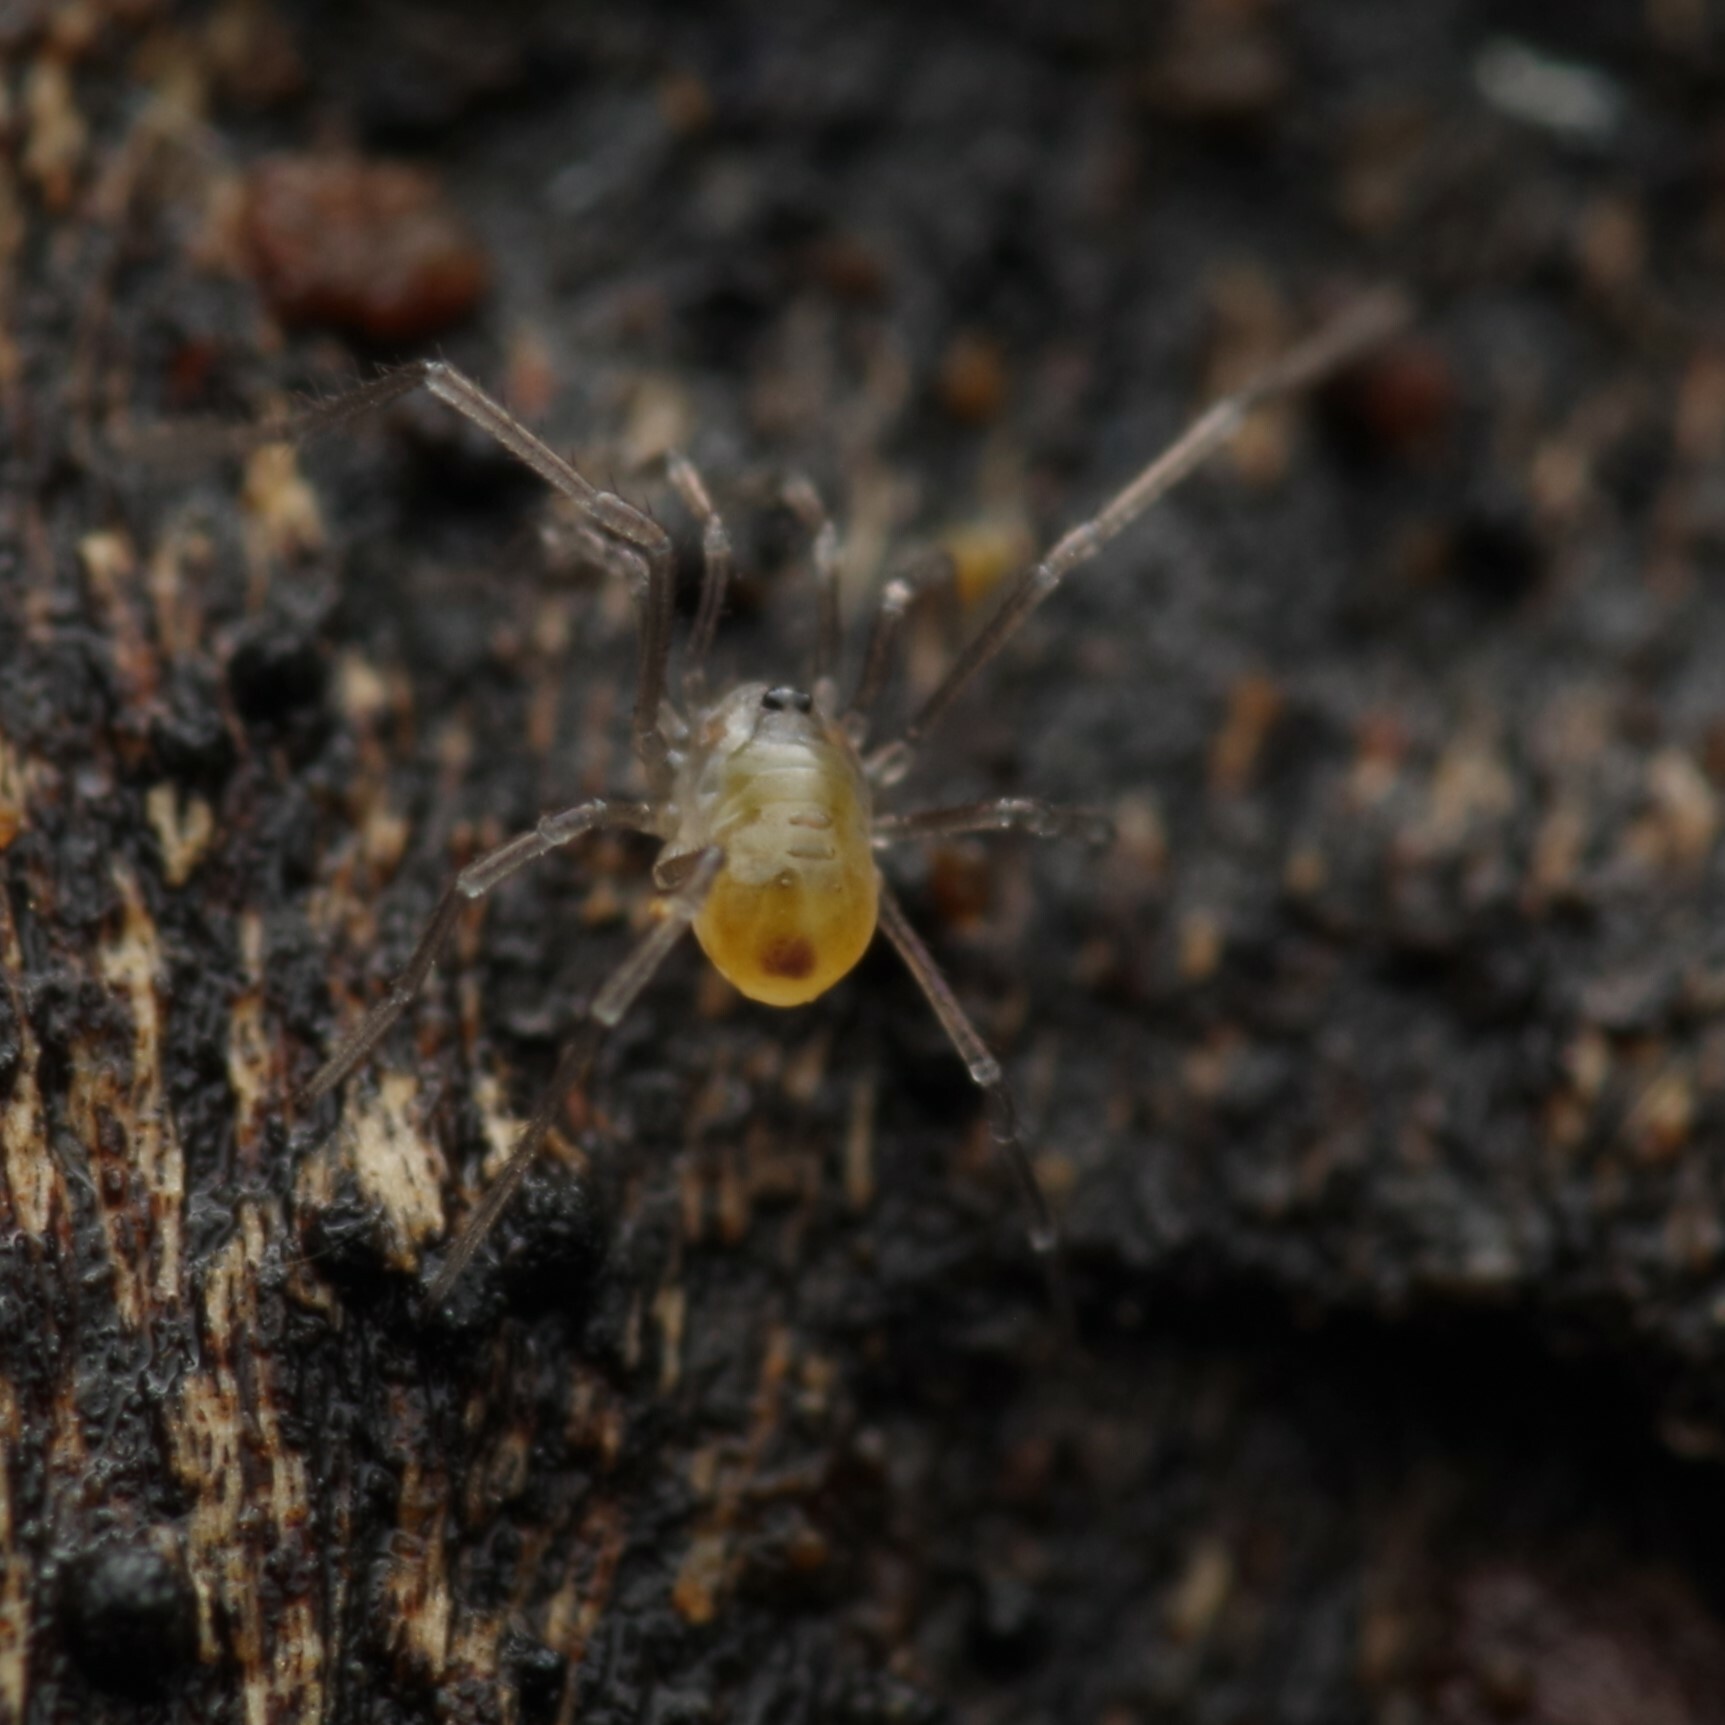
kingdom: Animalia
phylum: Arthropoda
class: Arachnida
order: Opiliones
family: Nemastomatidae
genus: Mitostoma
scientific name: Mitostoma chrysomelas
